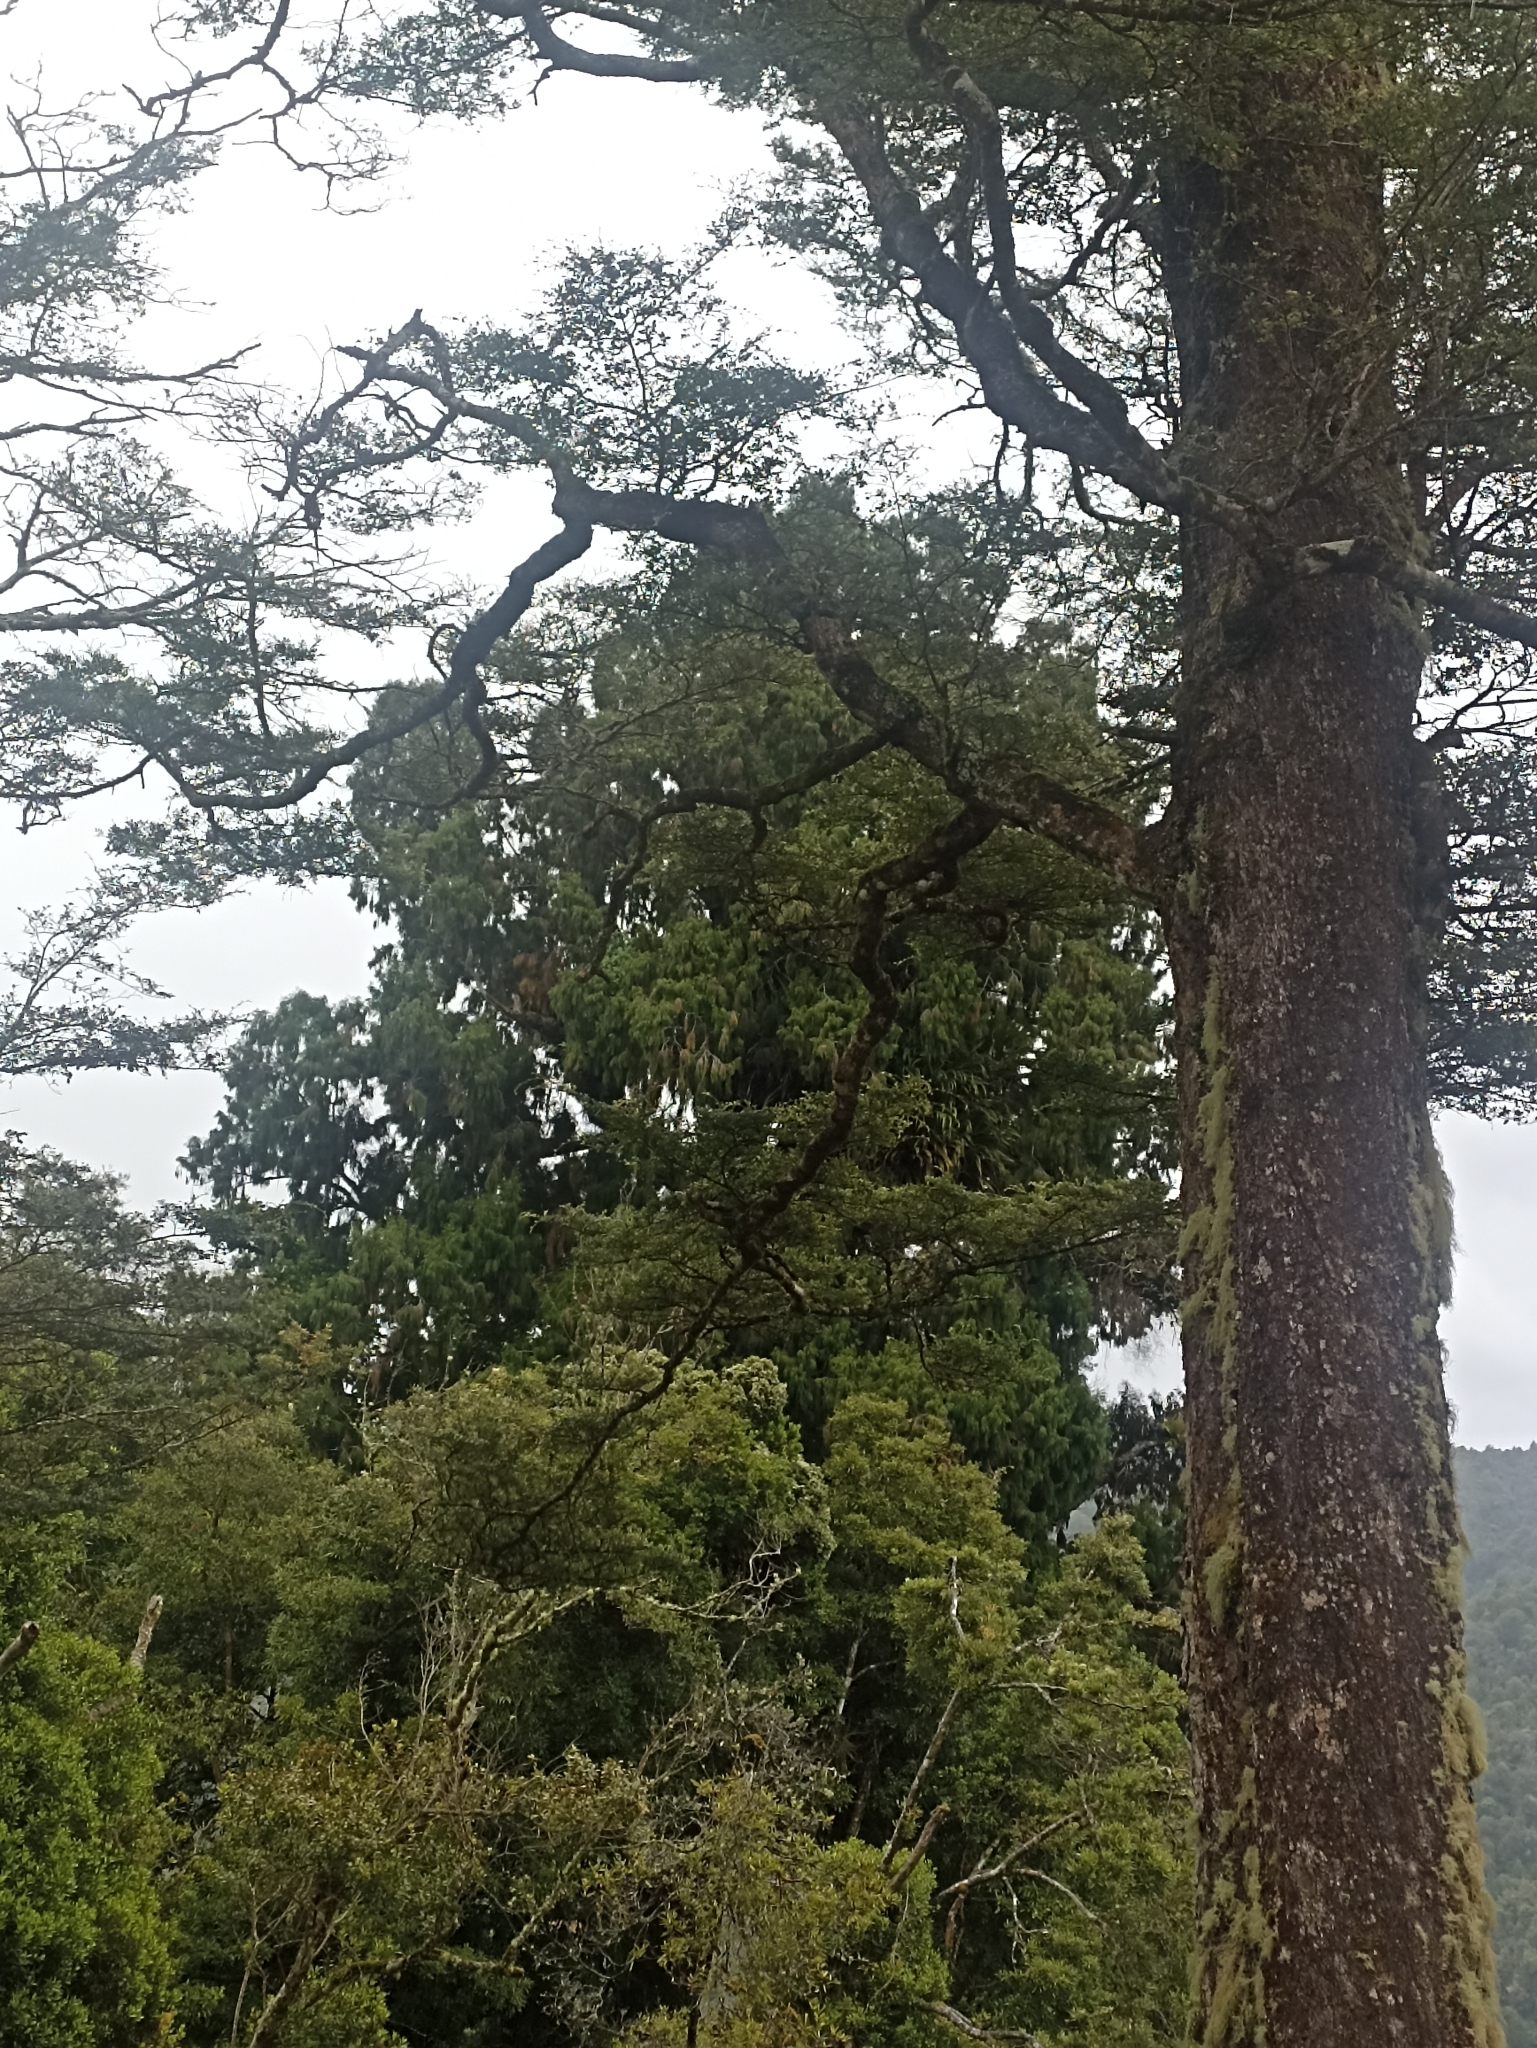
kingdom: Plantae
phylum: Tracheophyta
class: Pinopsida
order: Pinales
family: Podocarpaceae
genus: Dacrydium
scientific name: Dacrydium cupressinum
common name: Red pine
